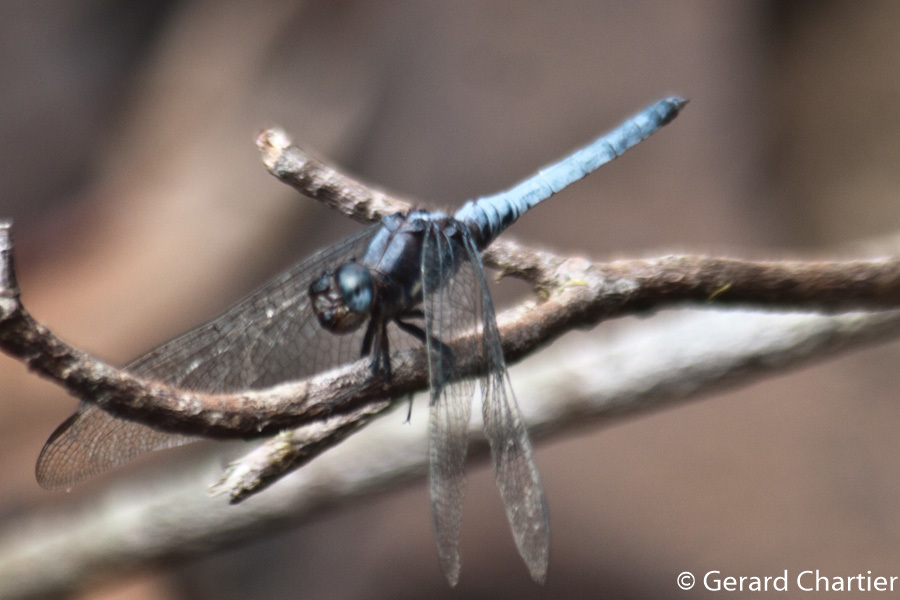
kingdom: Animalia
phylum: Arthropoda
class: Insecta
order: Odonata
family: Libellulidae
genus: Orthetrum
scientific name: Orthetrum glaucum
